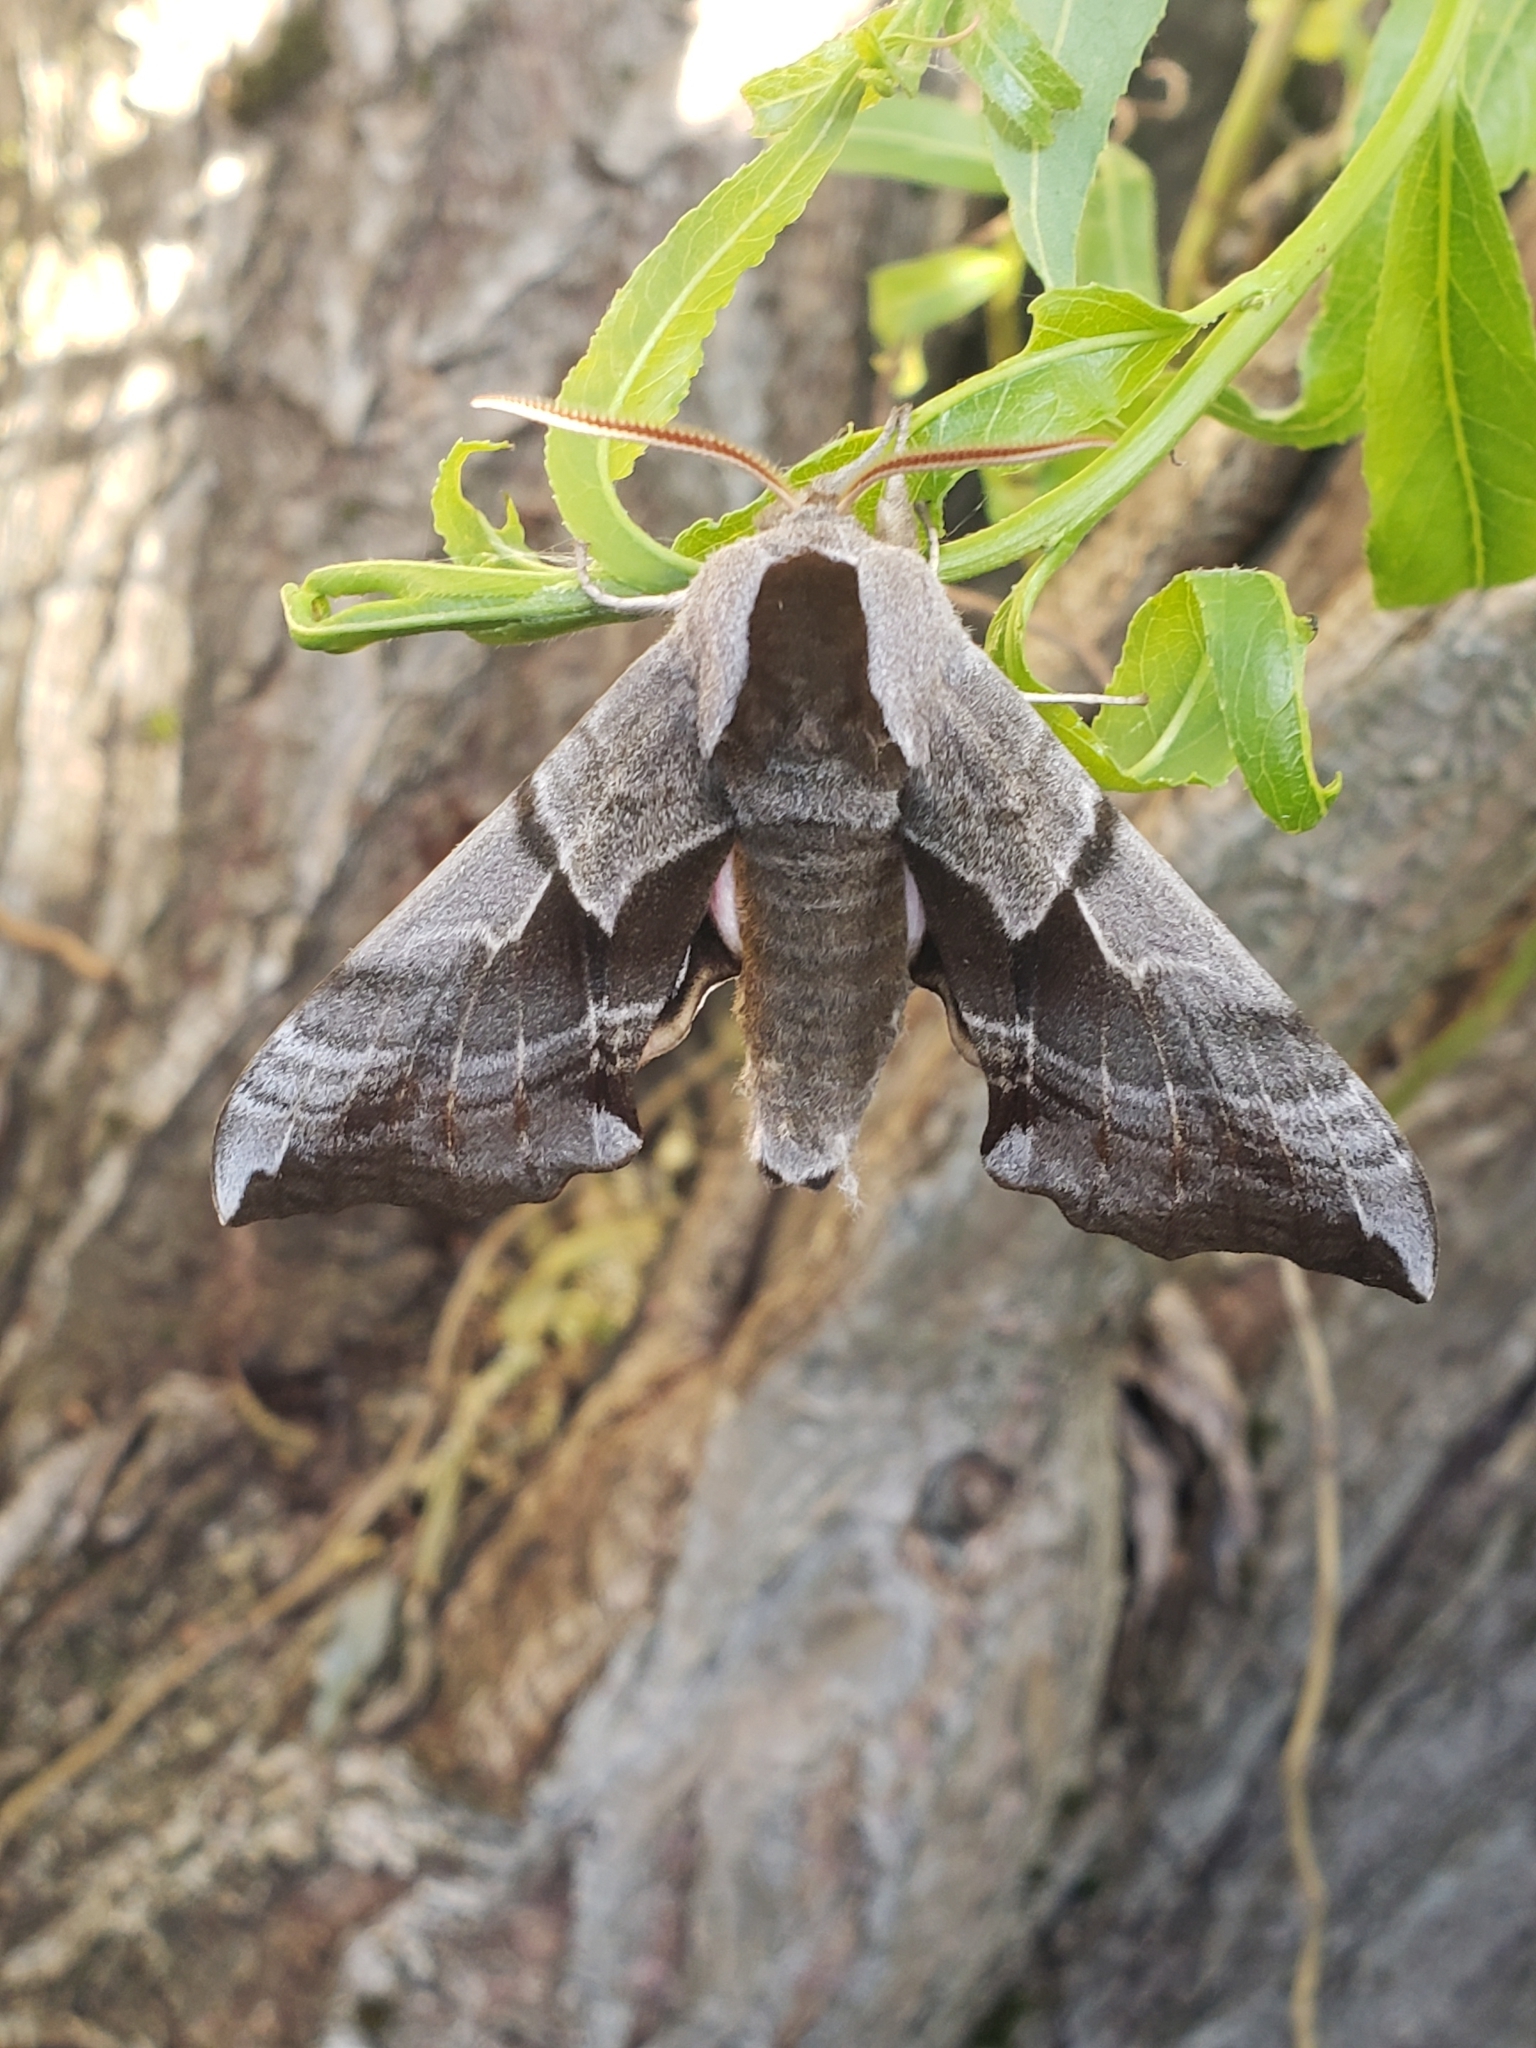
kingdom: Animalia
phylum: Arthropoda
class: Insecta
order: Lepidoptera
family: Sphingidae
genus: Smerinthus
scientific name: Smerinthus cerisyi
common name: Cerisy's sphinx moth
